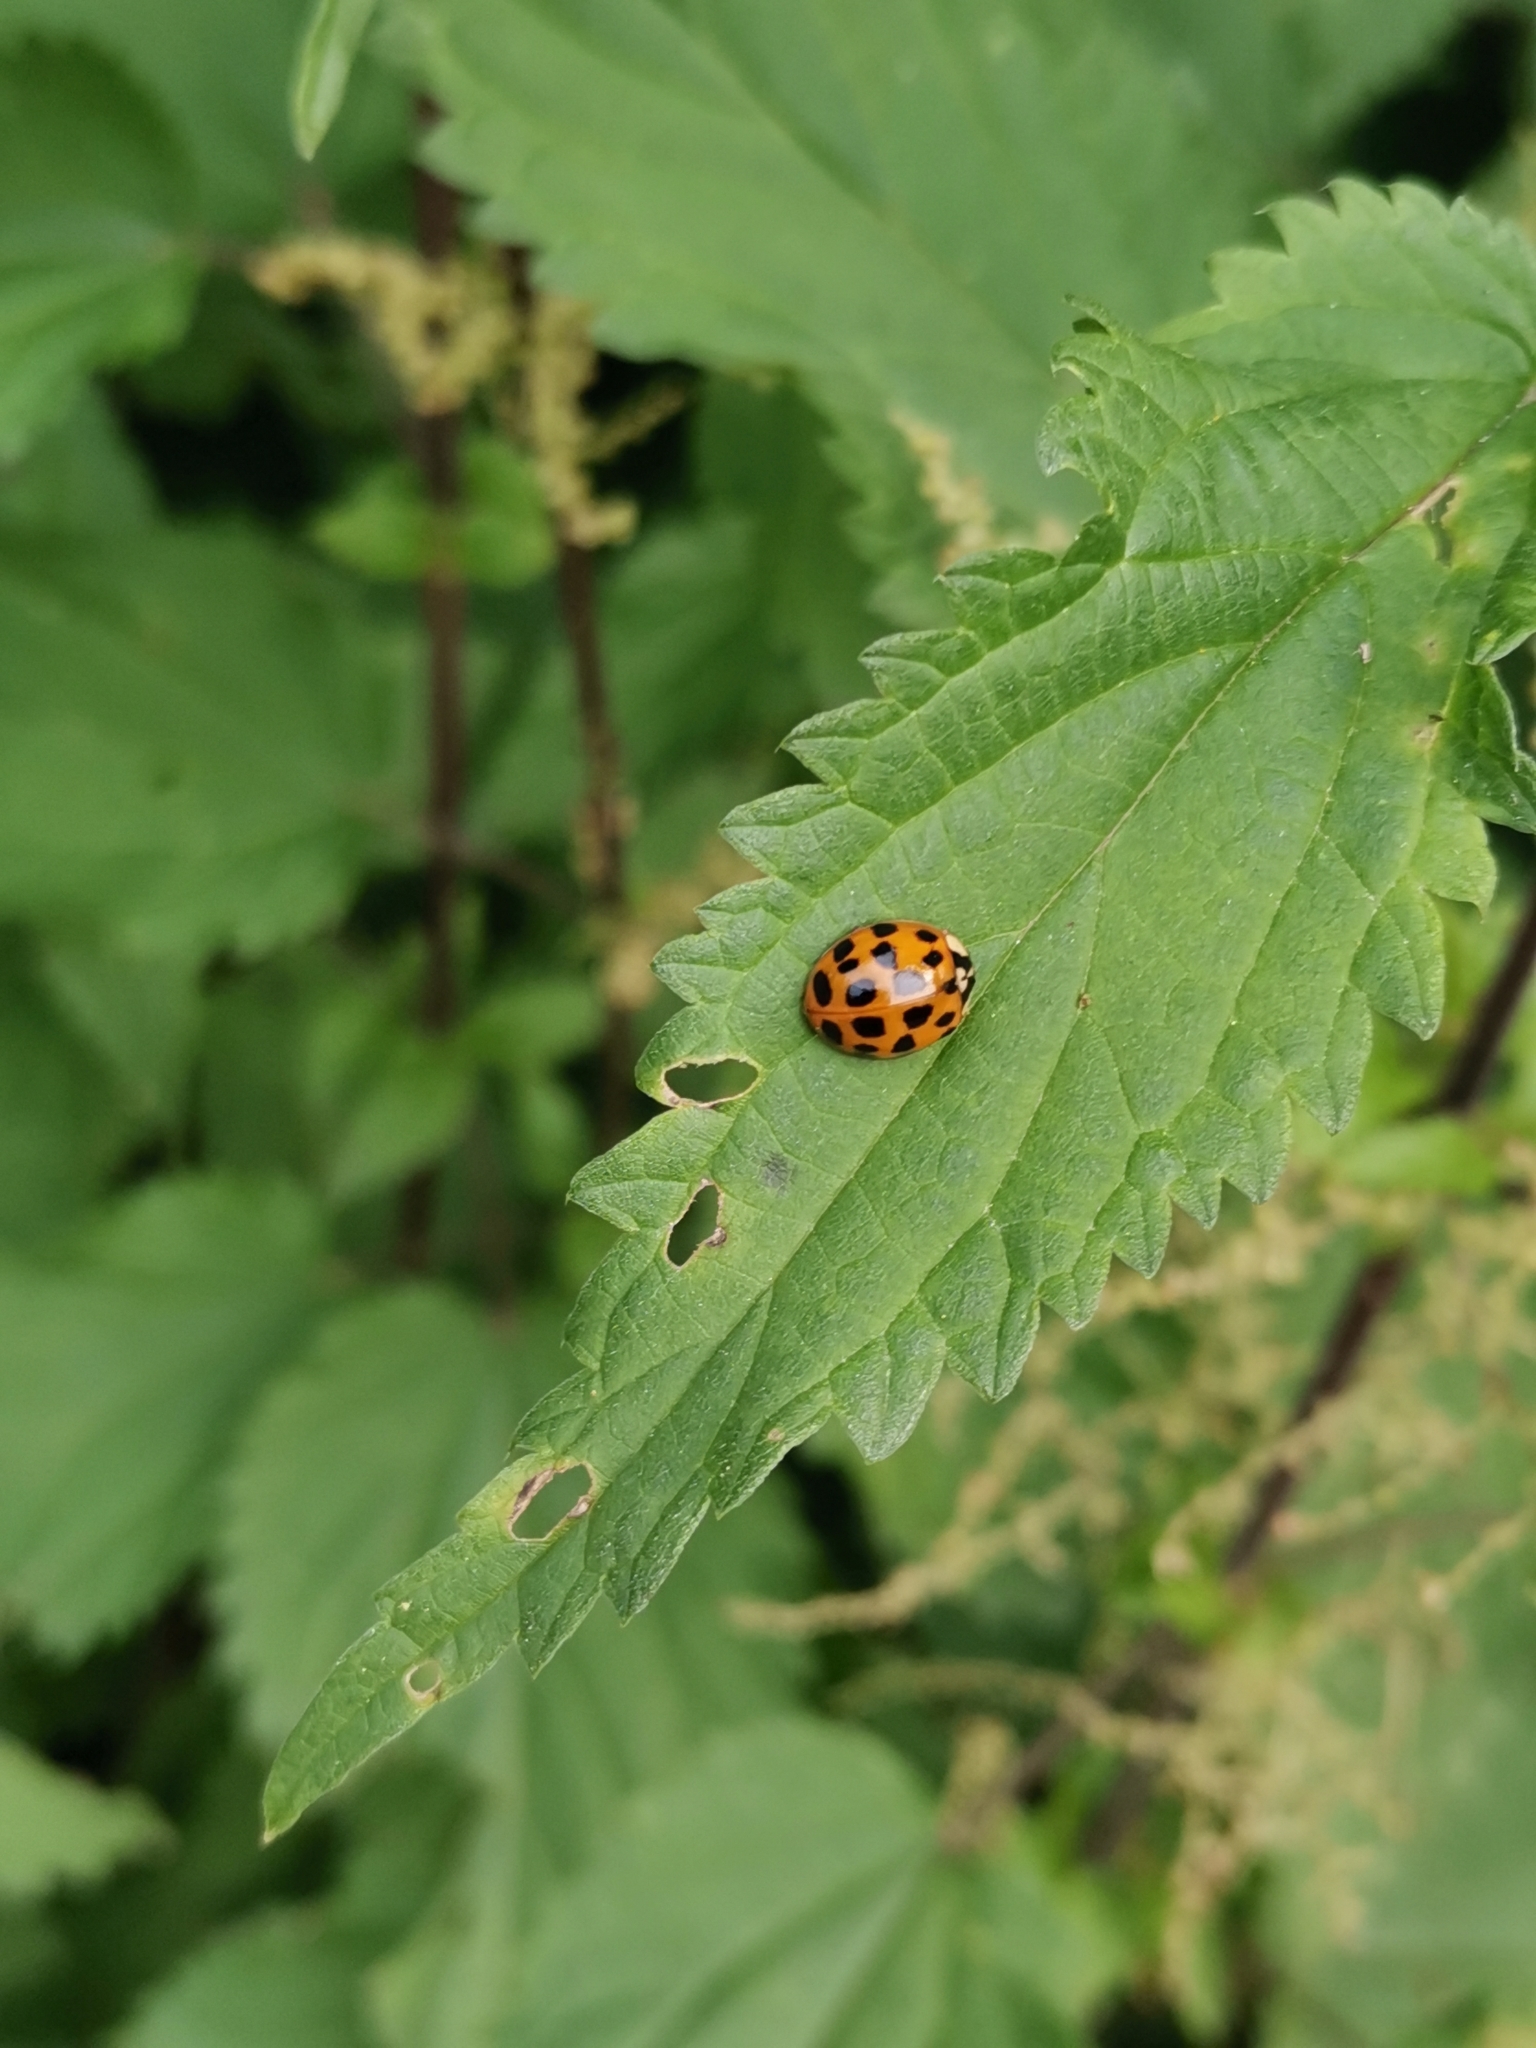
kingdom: Animalia
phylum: Arthropoda
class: Insecta
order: Coleoptera
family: Coccinellidae
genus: Harmonia
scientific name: Harmonia axyridis
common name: Harlequin ladybird
